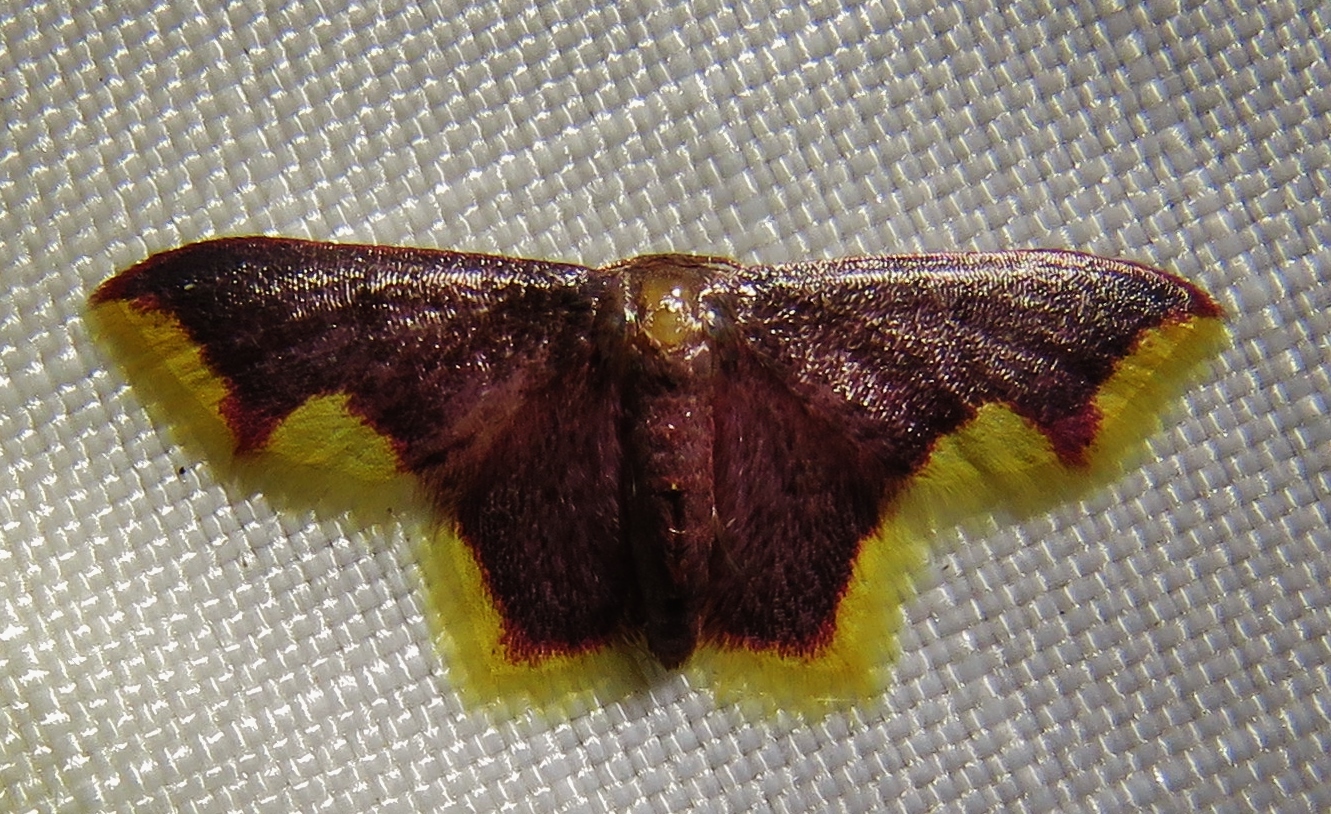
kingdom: Animalia
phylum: Arthropoda
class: Insecta
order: Lepidoptera
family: Geometridae
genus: Lophosis
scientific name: Lophosis labeculata
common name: Stained lophosis moth
